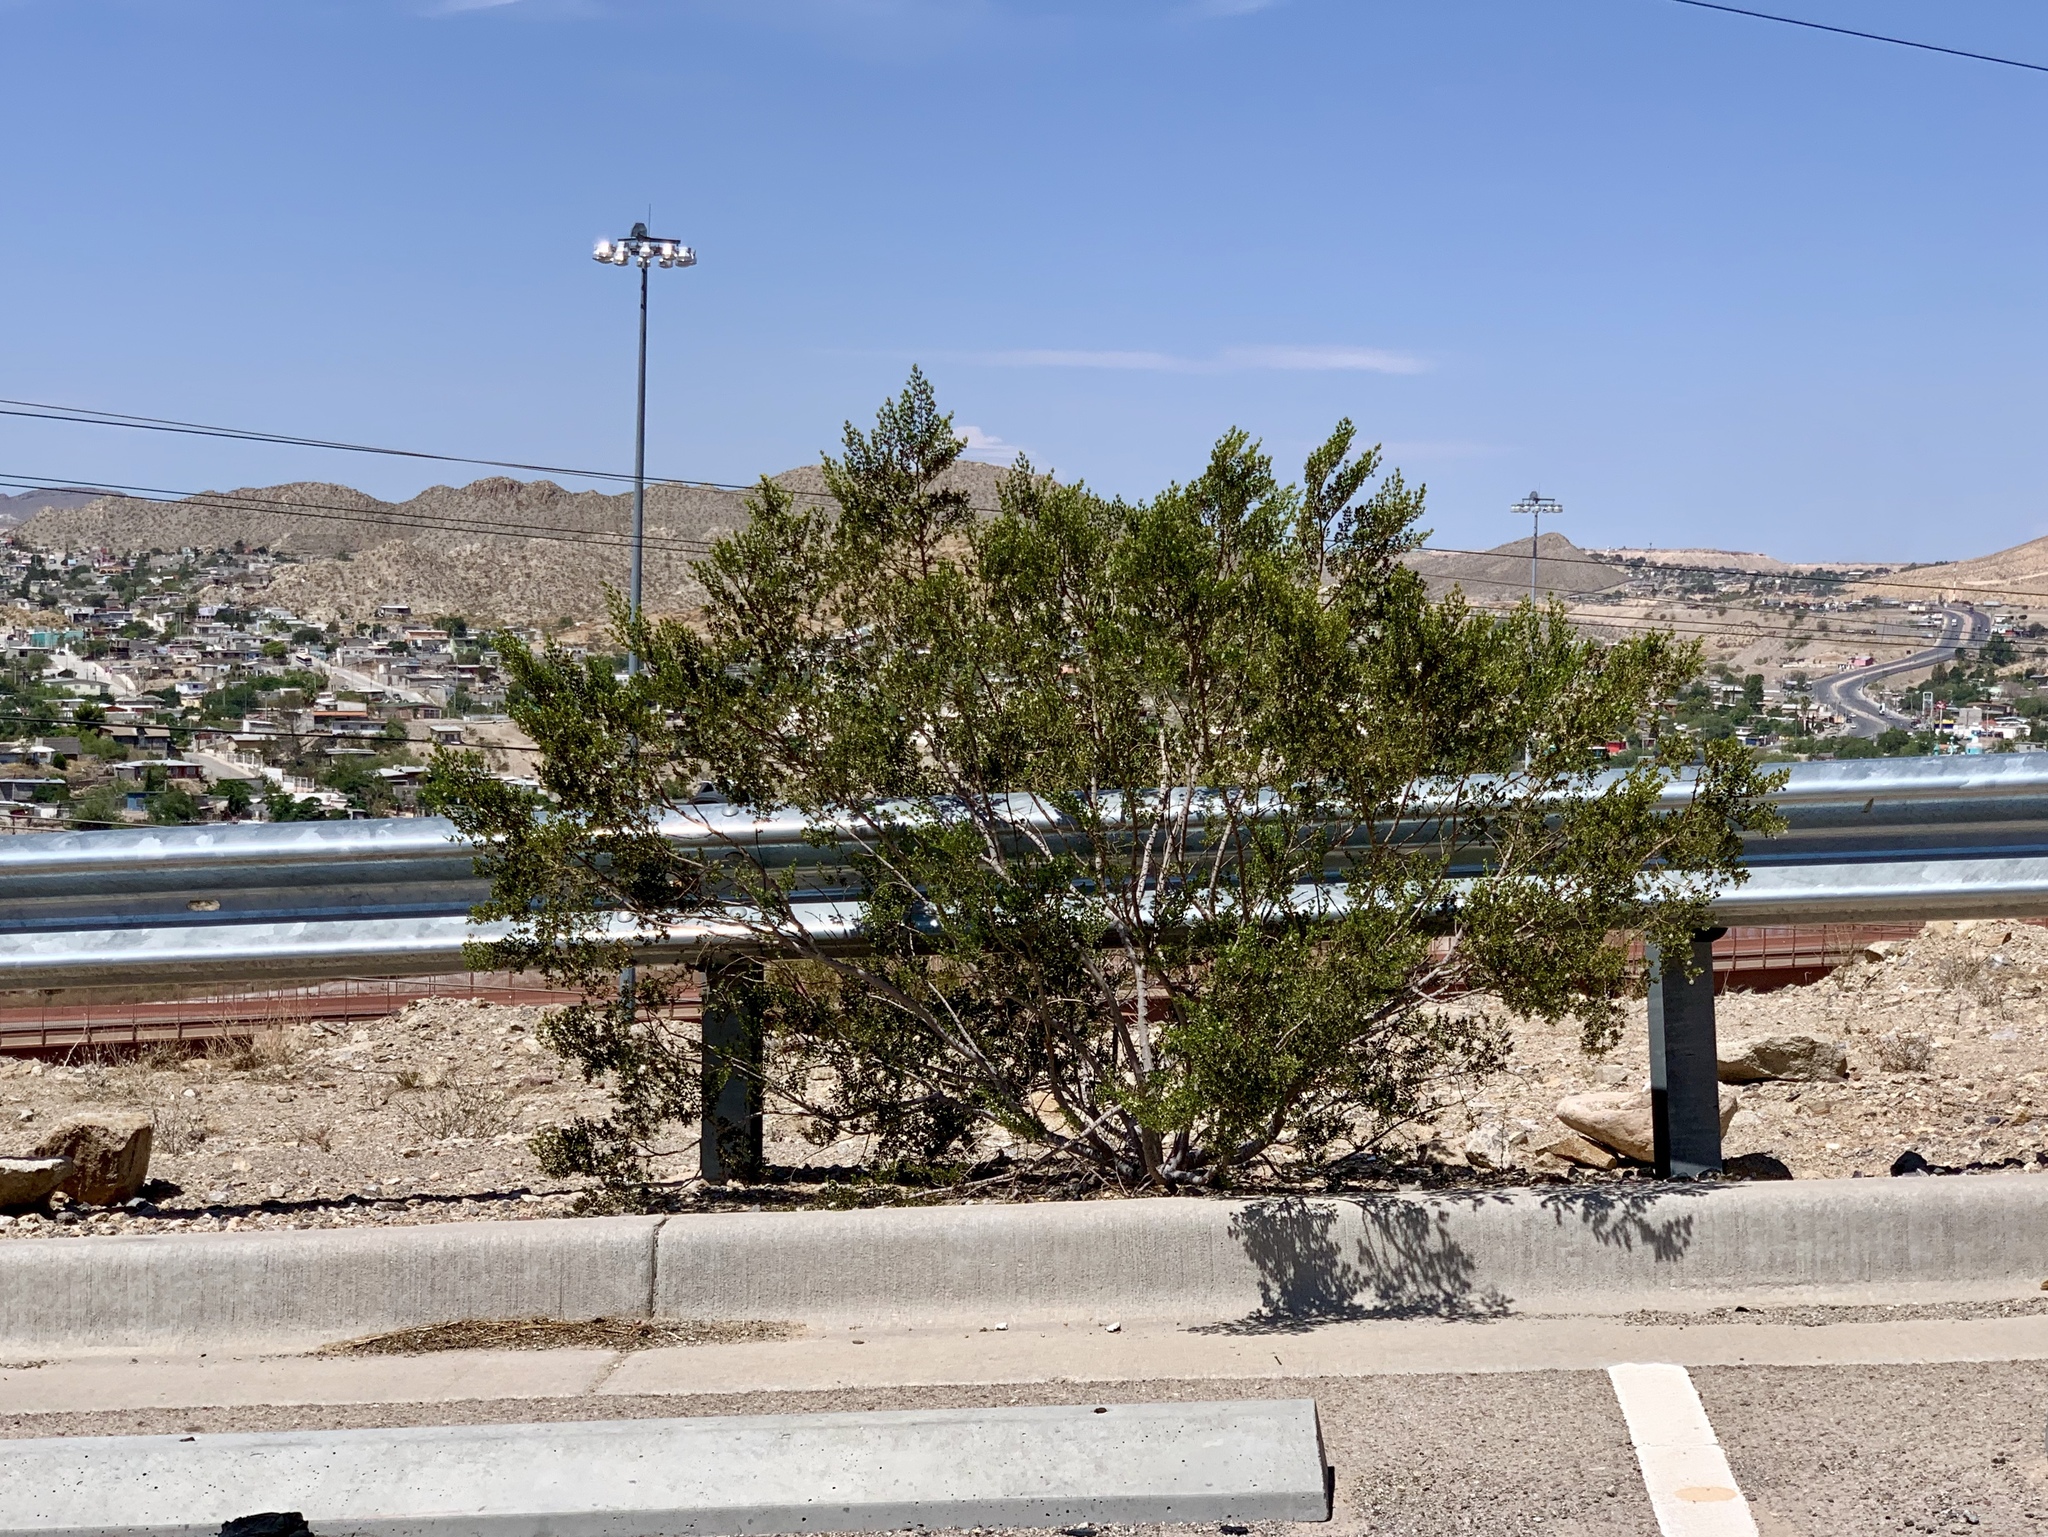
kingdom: Plantae
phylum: Tracheophyta
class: Magnoliopsida
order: Zygophyllales
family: Zygophyllaceae
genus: Larrea
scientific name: Larrea tridentata
